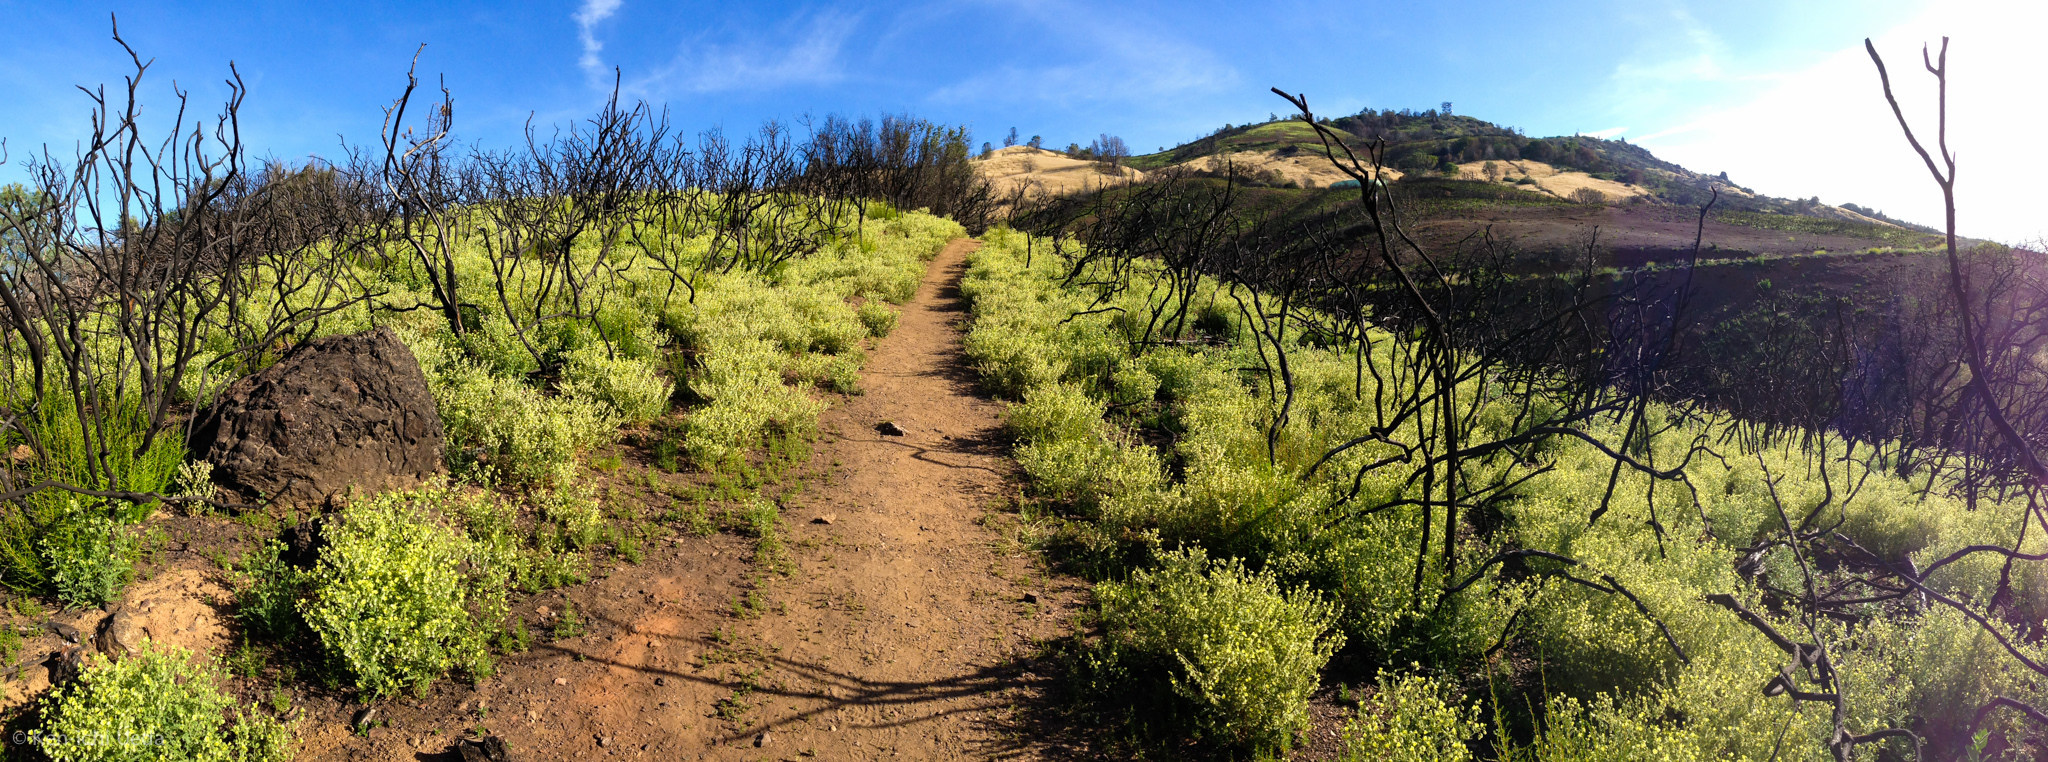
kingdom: Plantae
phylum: Tracheophyta
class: Magnoliopsida
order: Boraginales
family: Hydrophyllaceae
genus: Emmenanthe
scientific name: Emmenanthe penduliflora
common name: Whispering-bells
